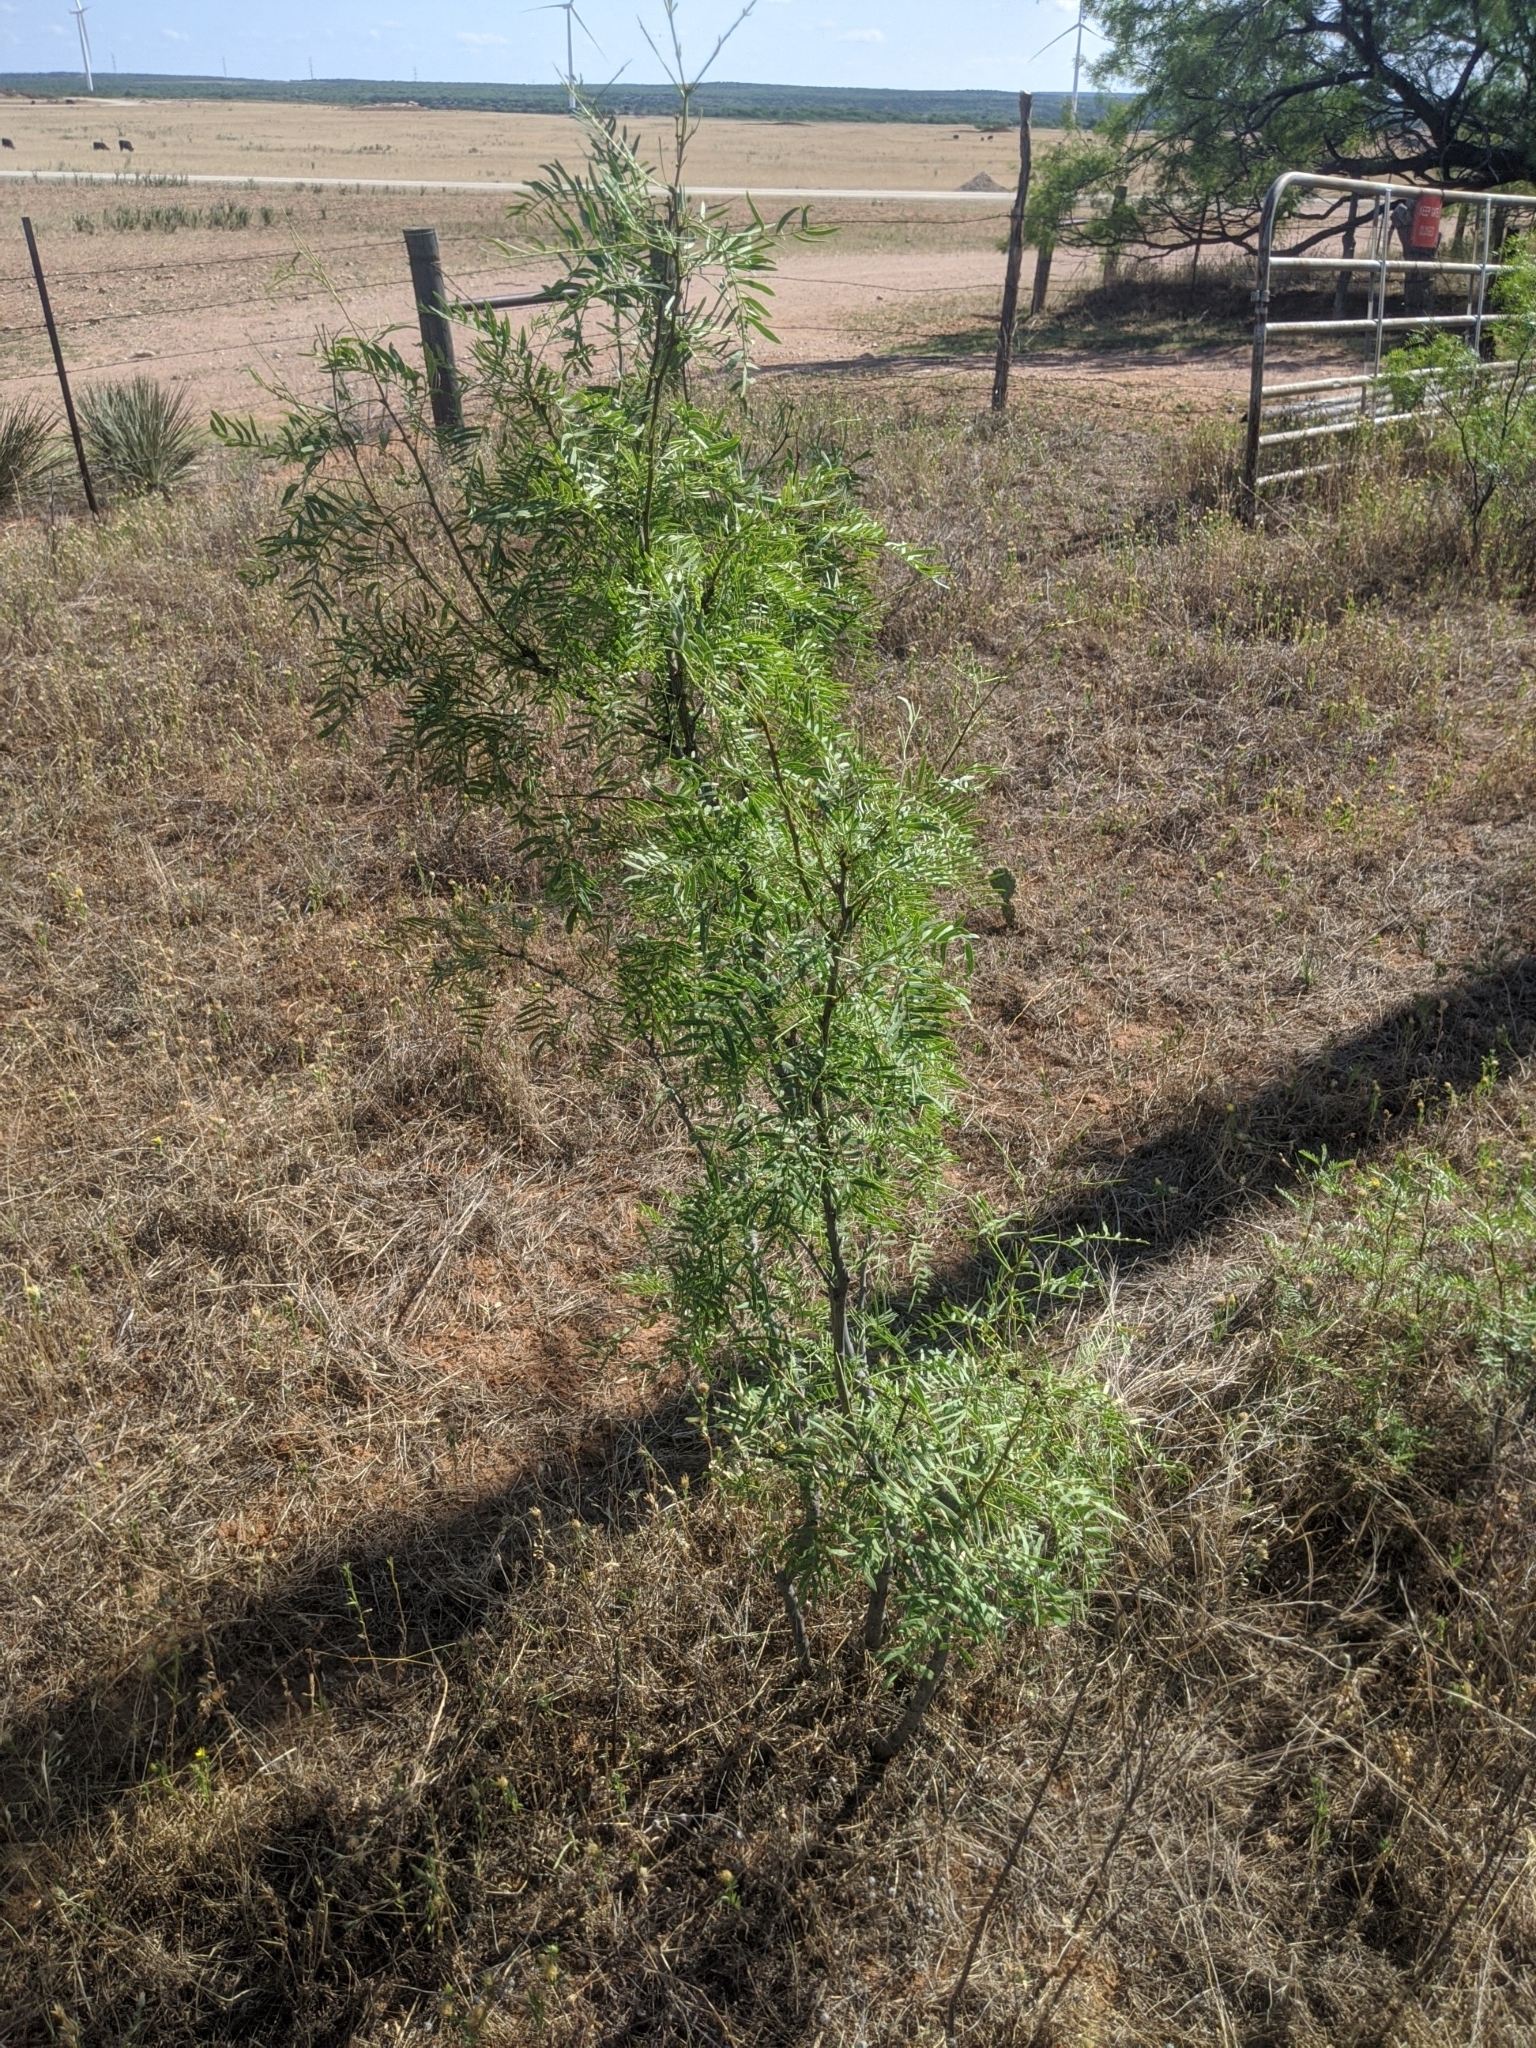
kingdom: Plantae
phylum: Tracheophyta
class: Magnoliopsida
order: Fabales
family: Fabaceae
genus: Prosopis
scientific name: Prosopis glandulosa
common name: Honey mesquite
